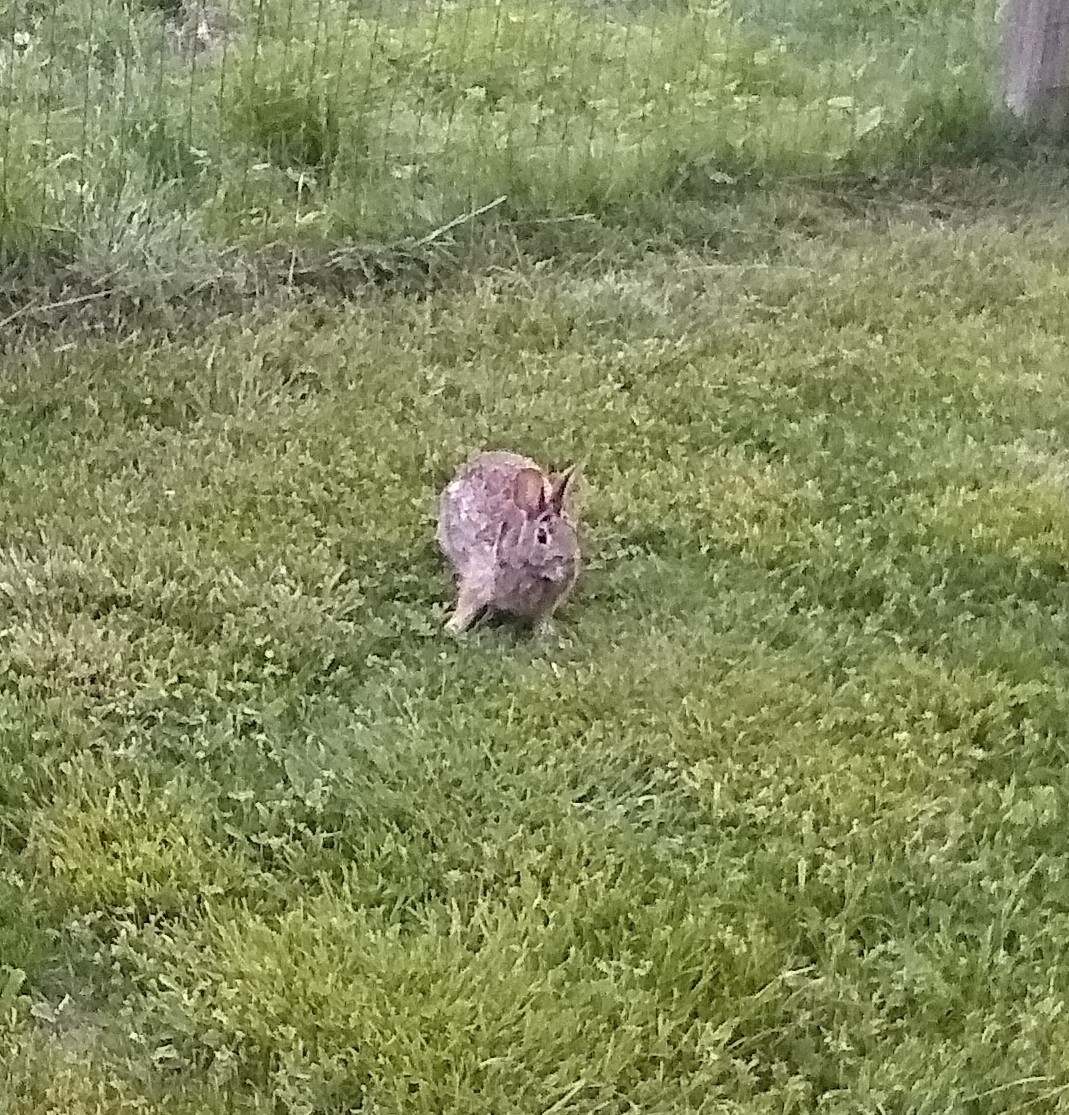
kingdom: Animalia
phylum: Chordata
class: Mammalia
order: Lagomorpha
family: Leporidae
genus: Sylvilagus
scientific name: Sylvilagus floridanus
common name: Eastern cottontail
